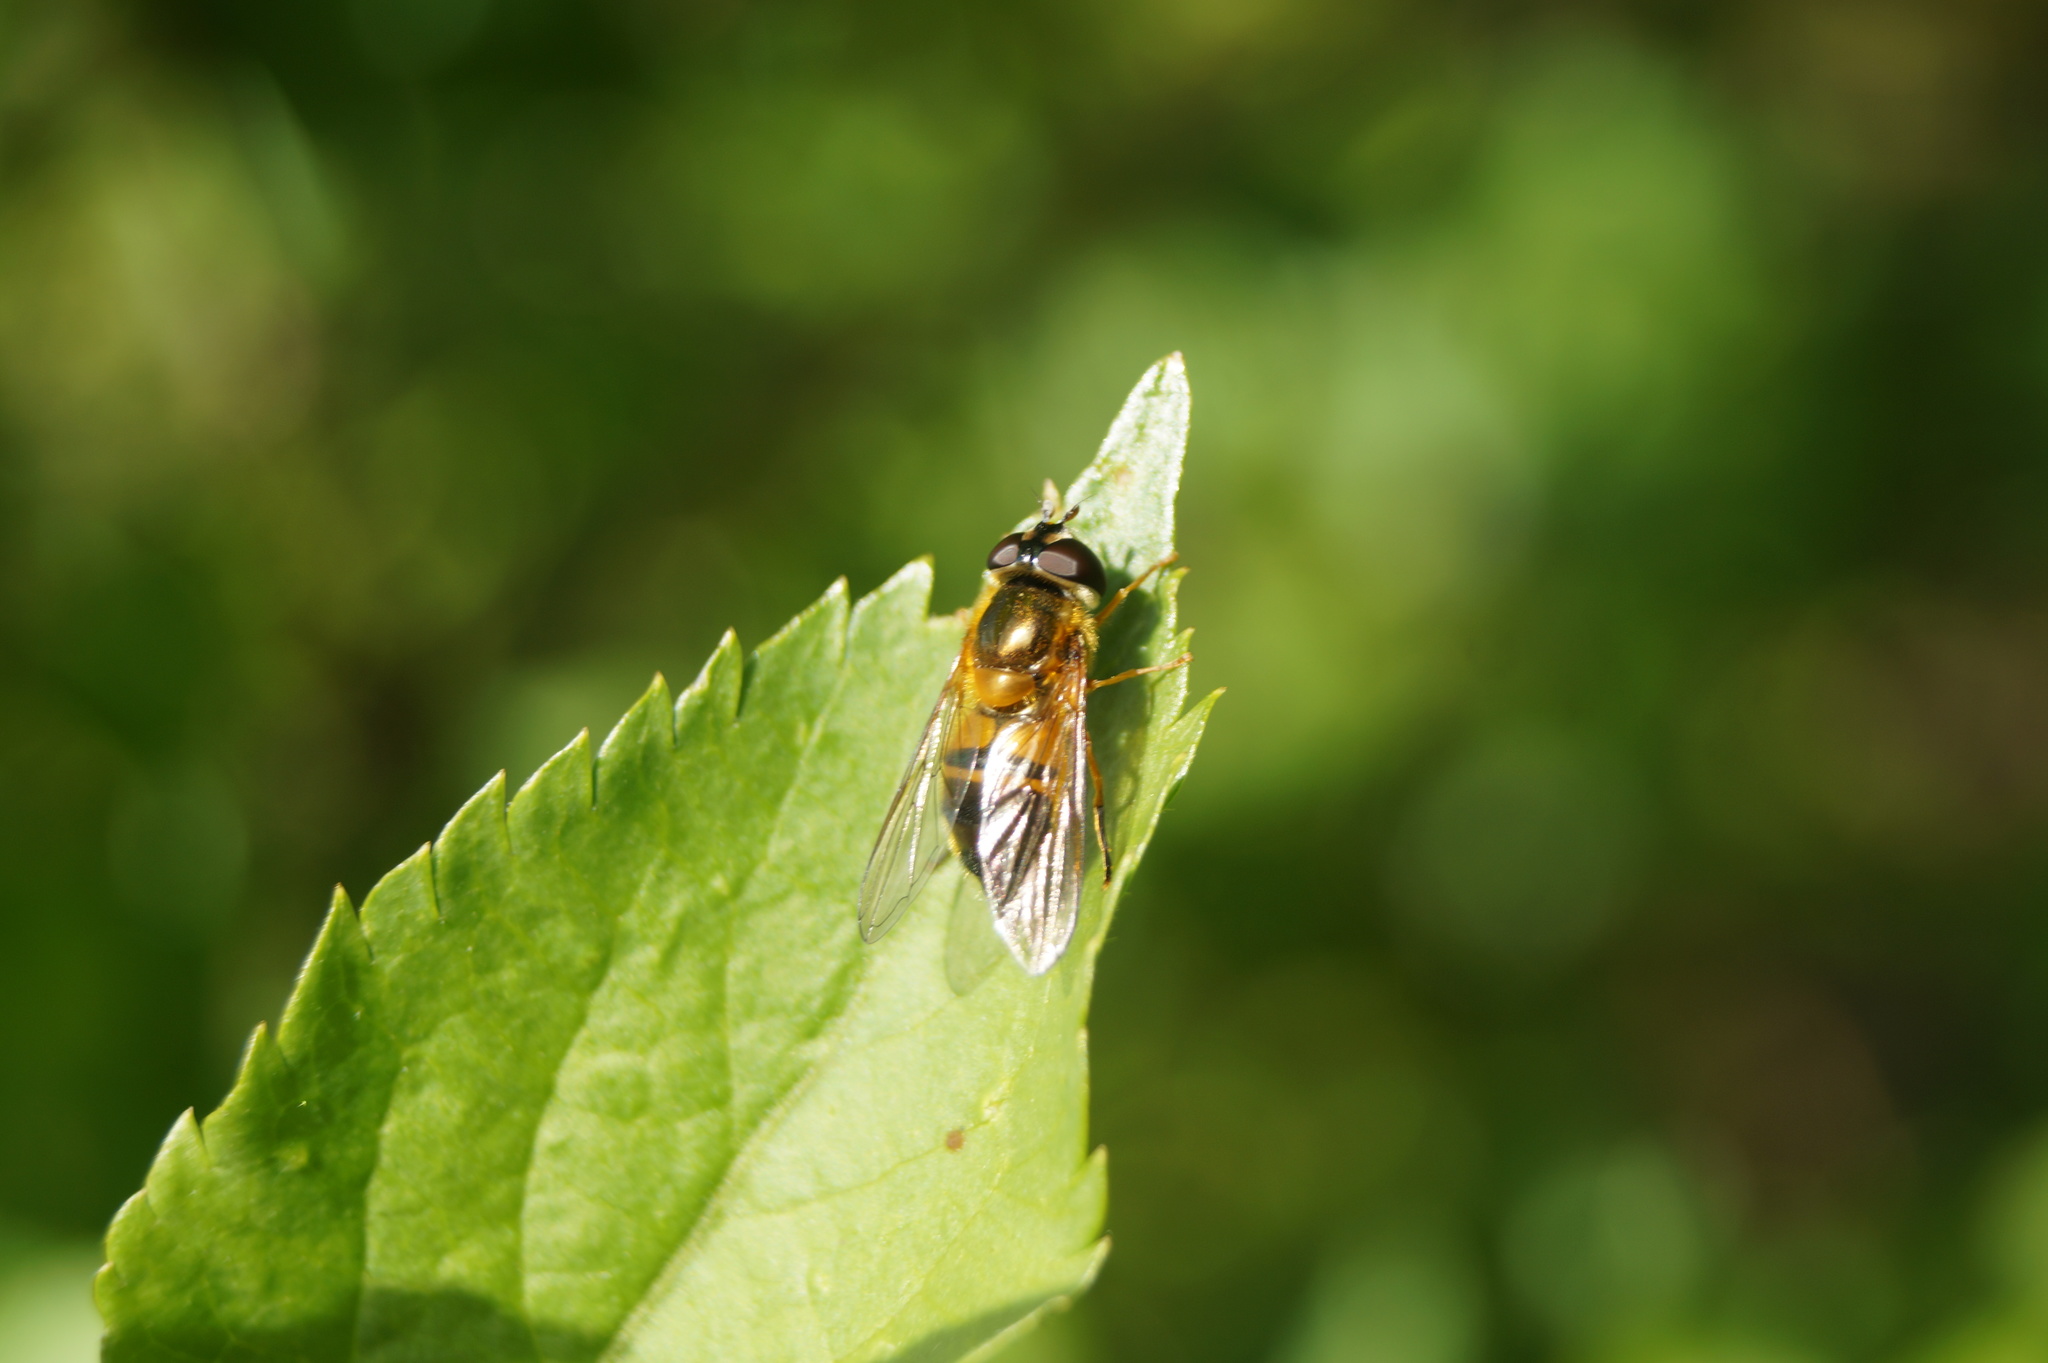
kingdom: Animalia
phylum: Arthropoda
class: Insecta
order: Diptera
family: Syrphidae
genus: Epistrophe
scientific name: Epistrophe eligans
